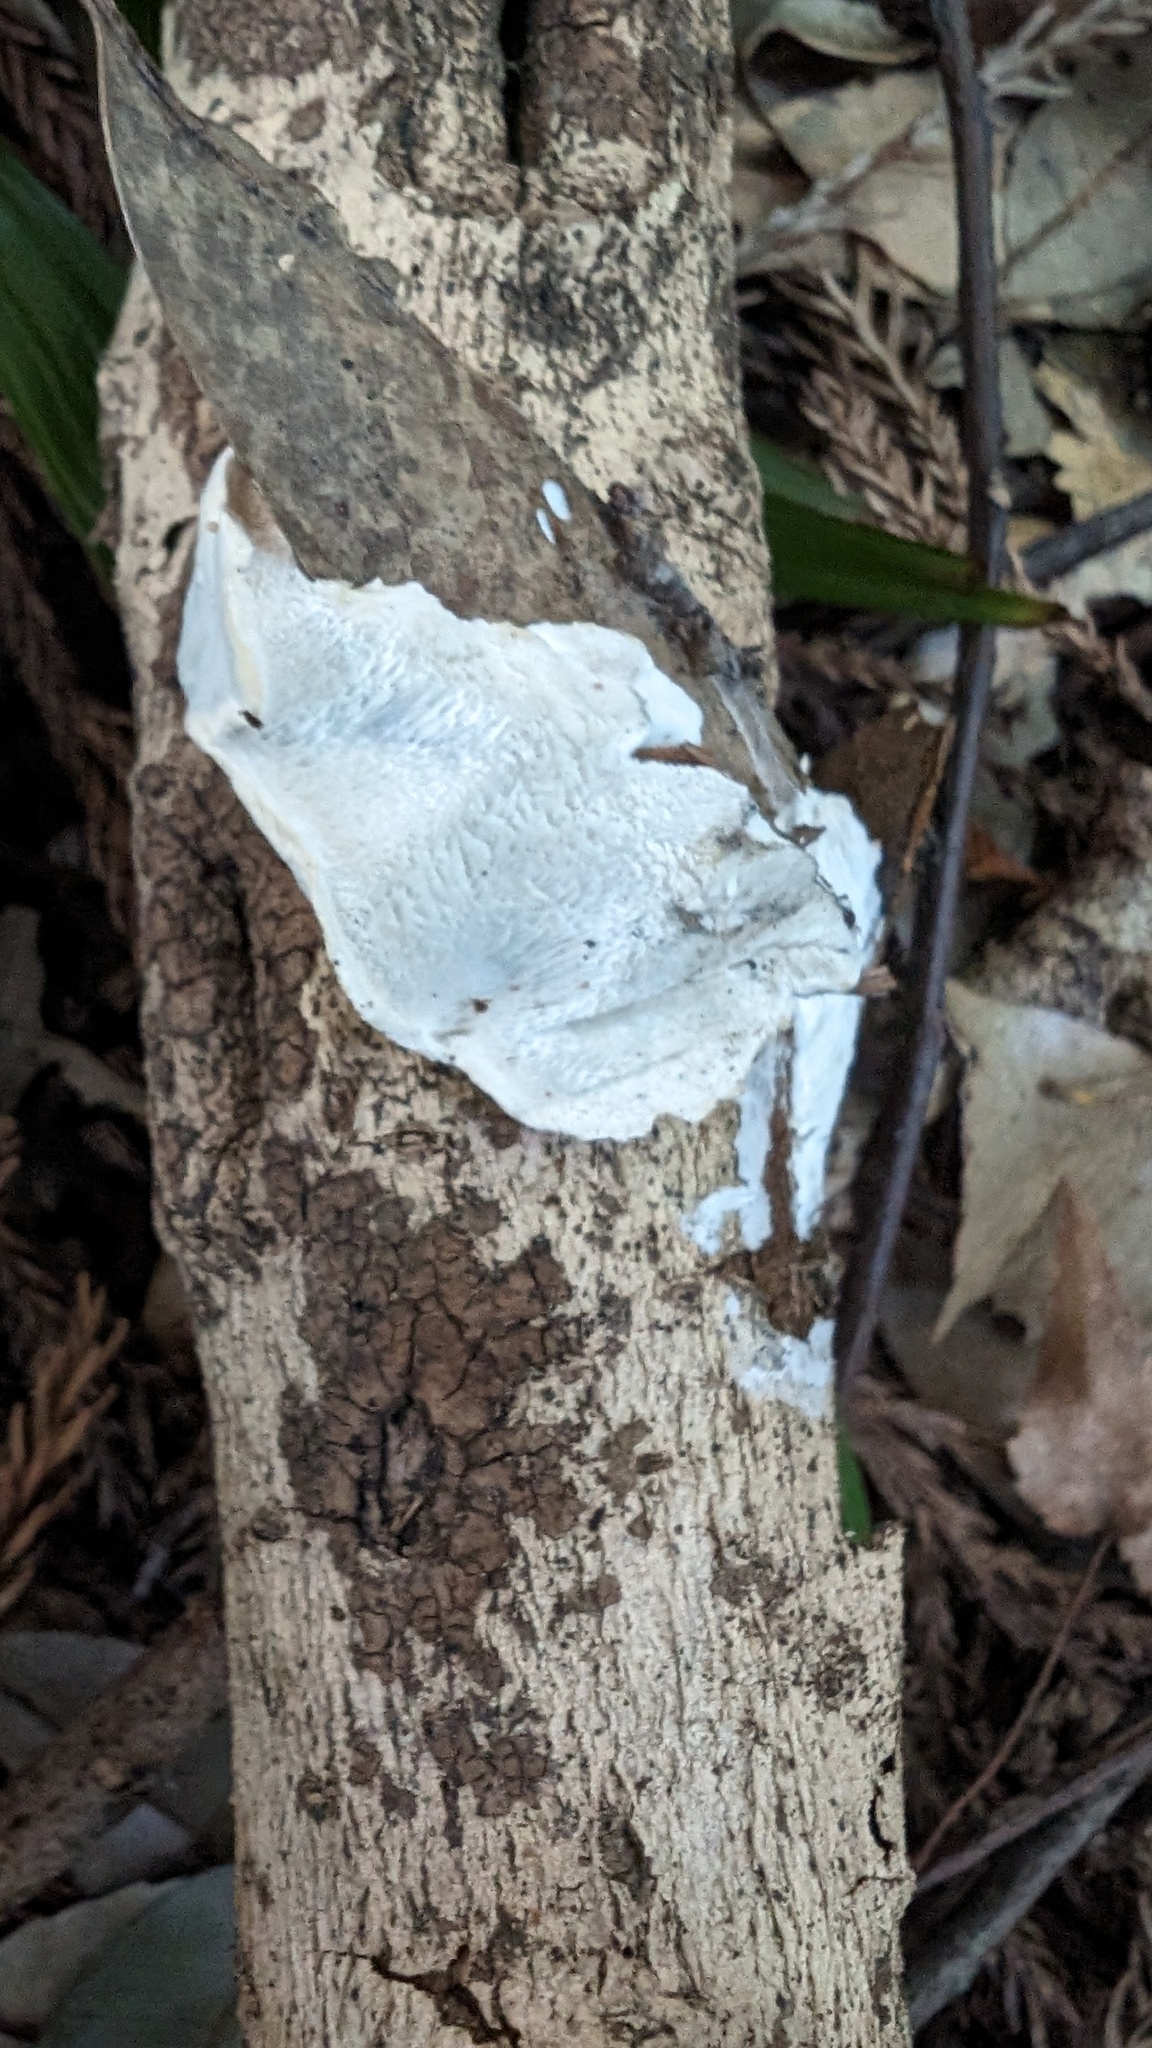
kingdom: Fungi
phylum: Basidiomycota
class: Agaricomycetes
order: Polyporales
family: Polyporaceae
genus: Cyanosporus
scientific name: Cyanosporus caesius
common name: Blue cheese polypore
